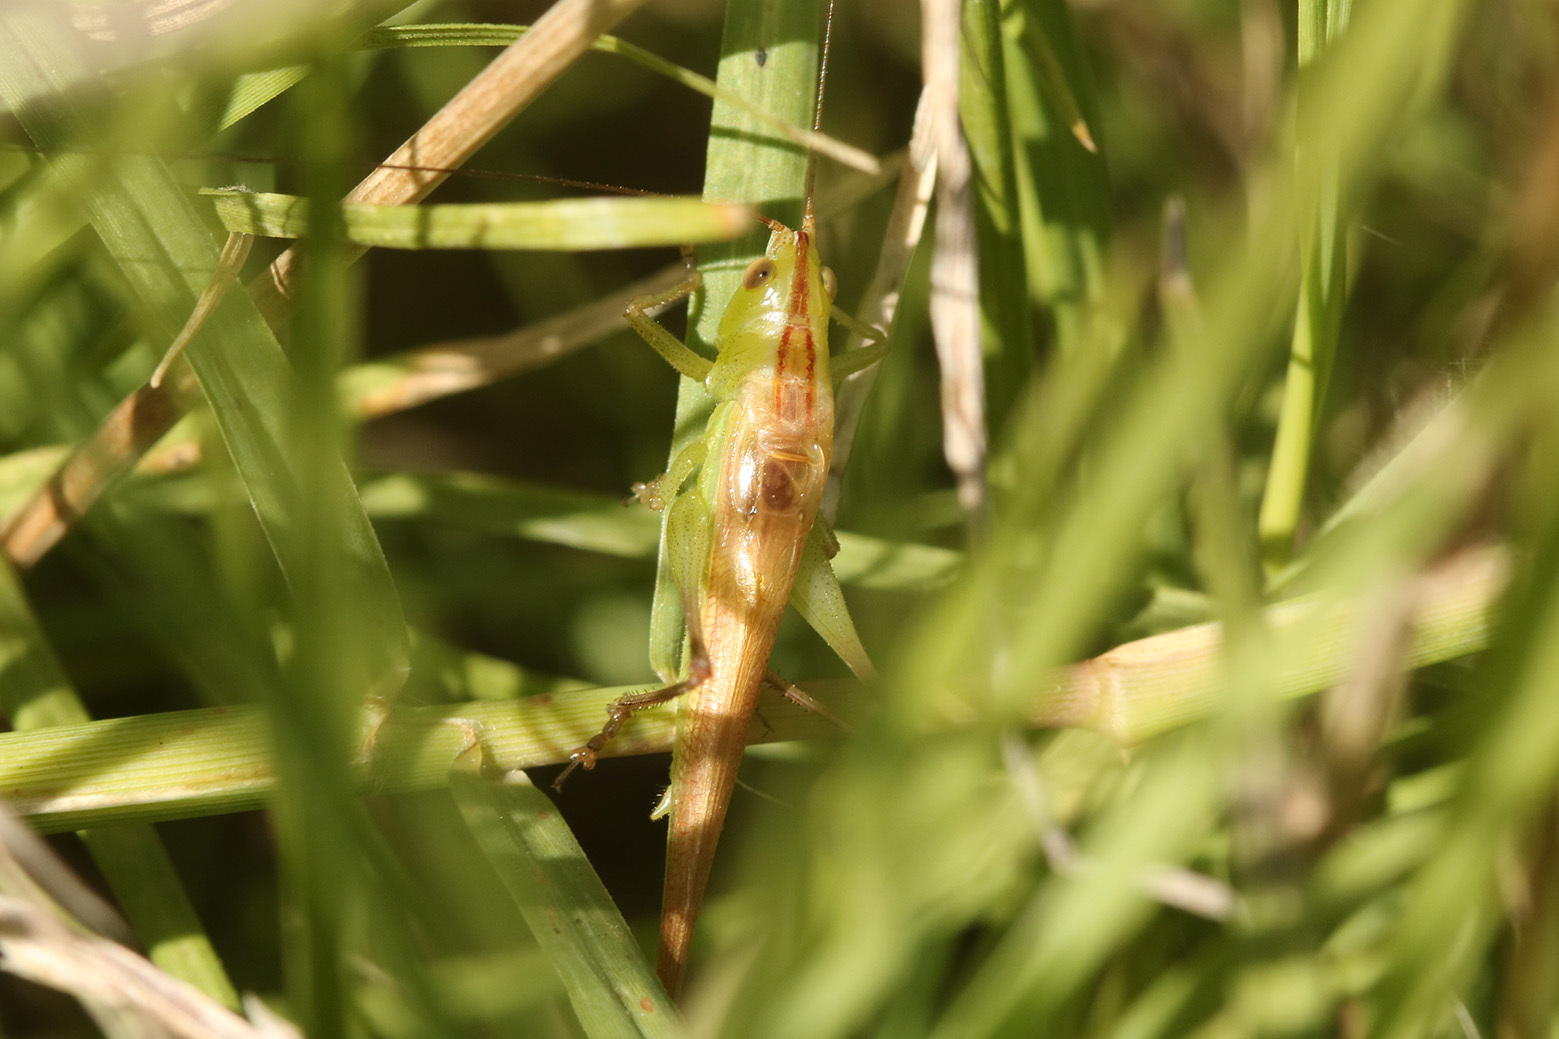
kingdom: Animalia
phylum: Arthropoda
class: Insecta
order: Orthoptera
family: Tettigoniidae
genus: Conocephalus
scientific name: Conocephalus longipes
